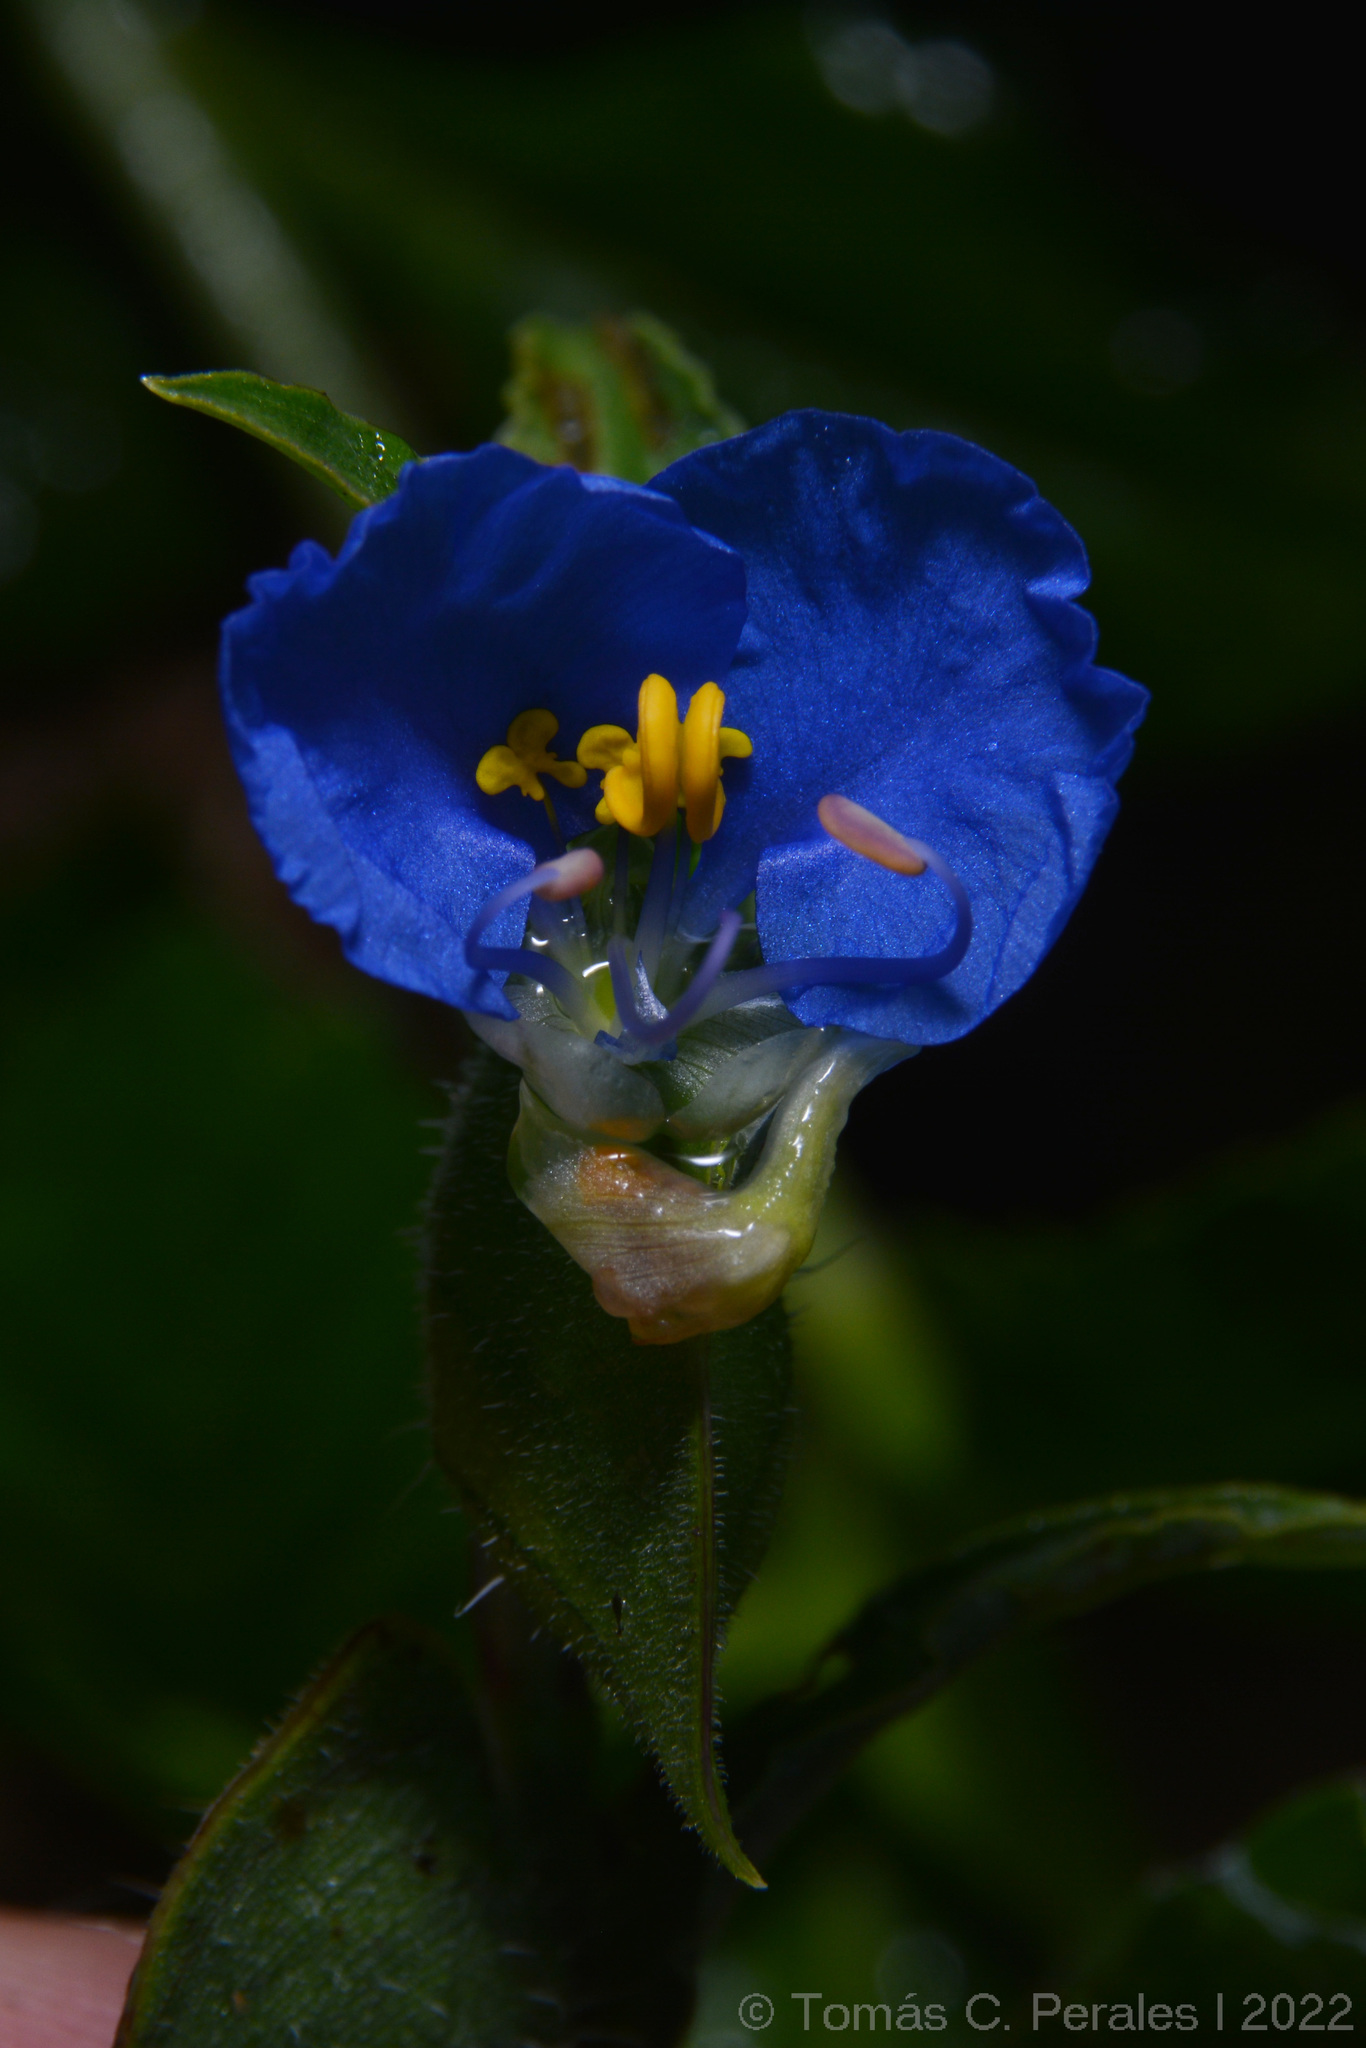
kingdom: Plantae
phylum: Tracheophyta
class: Liliopsida
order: Commelinales
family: Commelinaceae
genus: Commelina
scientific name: Commelina erecta
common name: Blousel blommetjie
